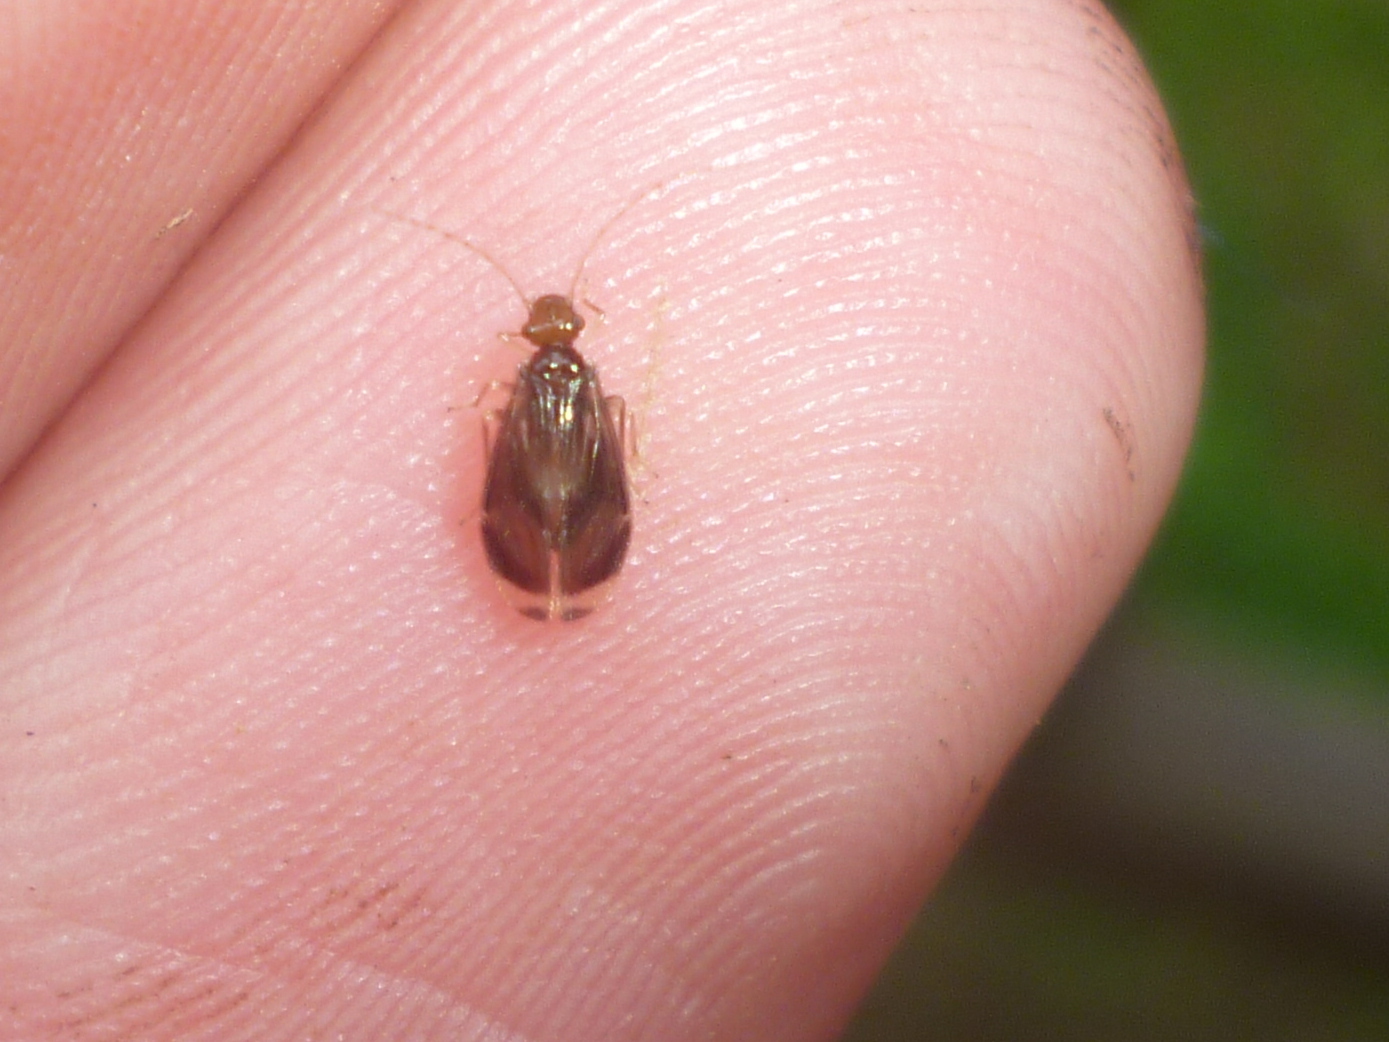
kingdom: Animalia
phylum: Arthropoda
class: Insecta
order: Psocodea
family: Amphipsocidae
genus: Polypsocus
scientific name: Polypsocus corruptus
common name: Corrupt barklouse
